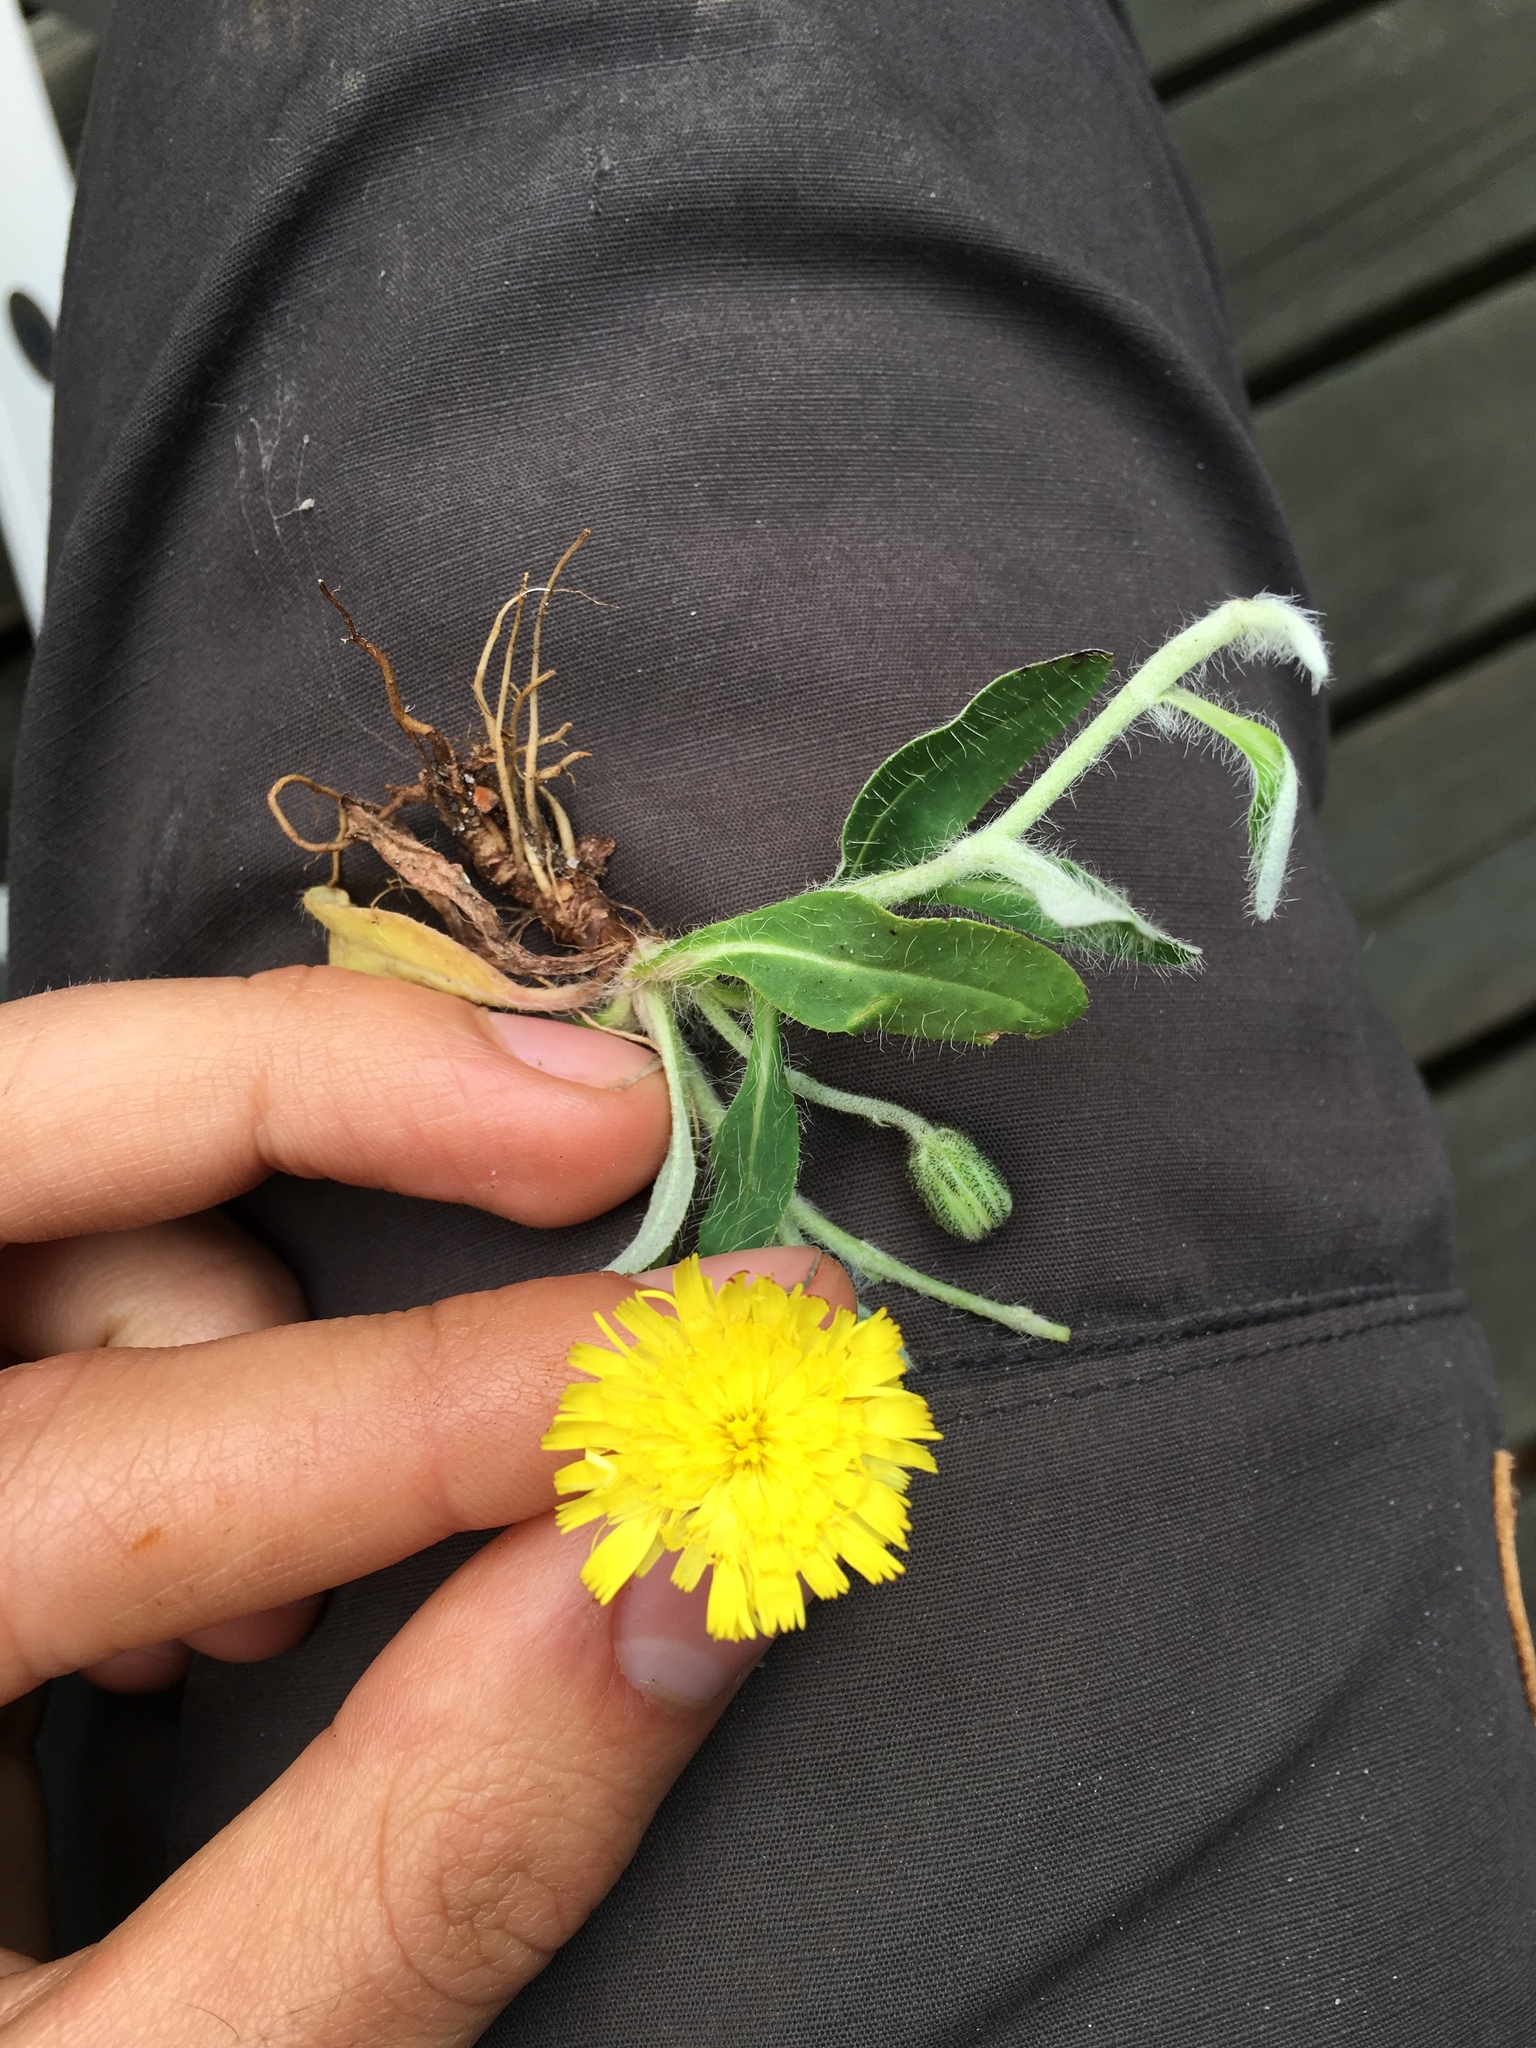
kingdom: Plantae
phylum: Tracheophyta
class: Magnoliopsida
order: Asterales
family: Asteraceae
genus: Pilosella
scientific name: Pilosella officinarum
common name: Mouse-ear hawkweed
